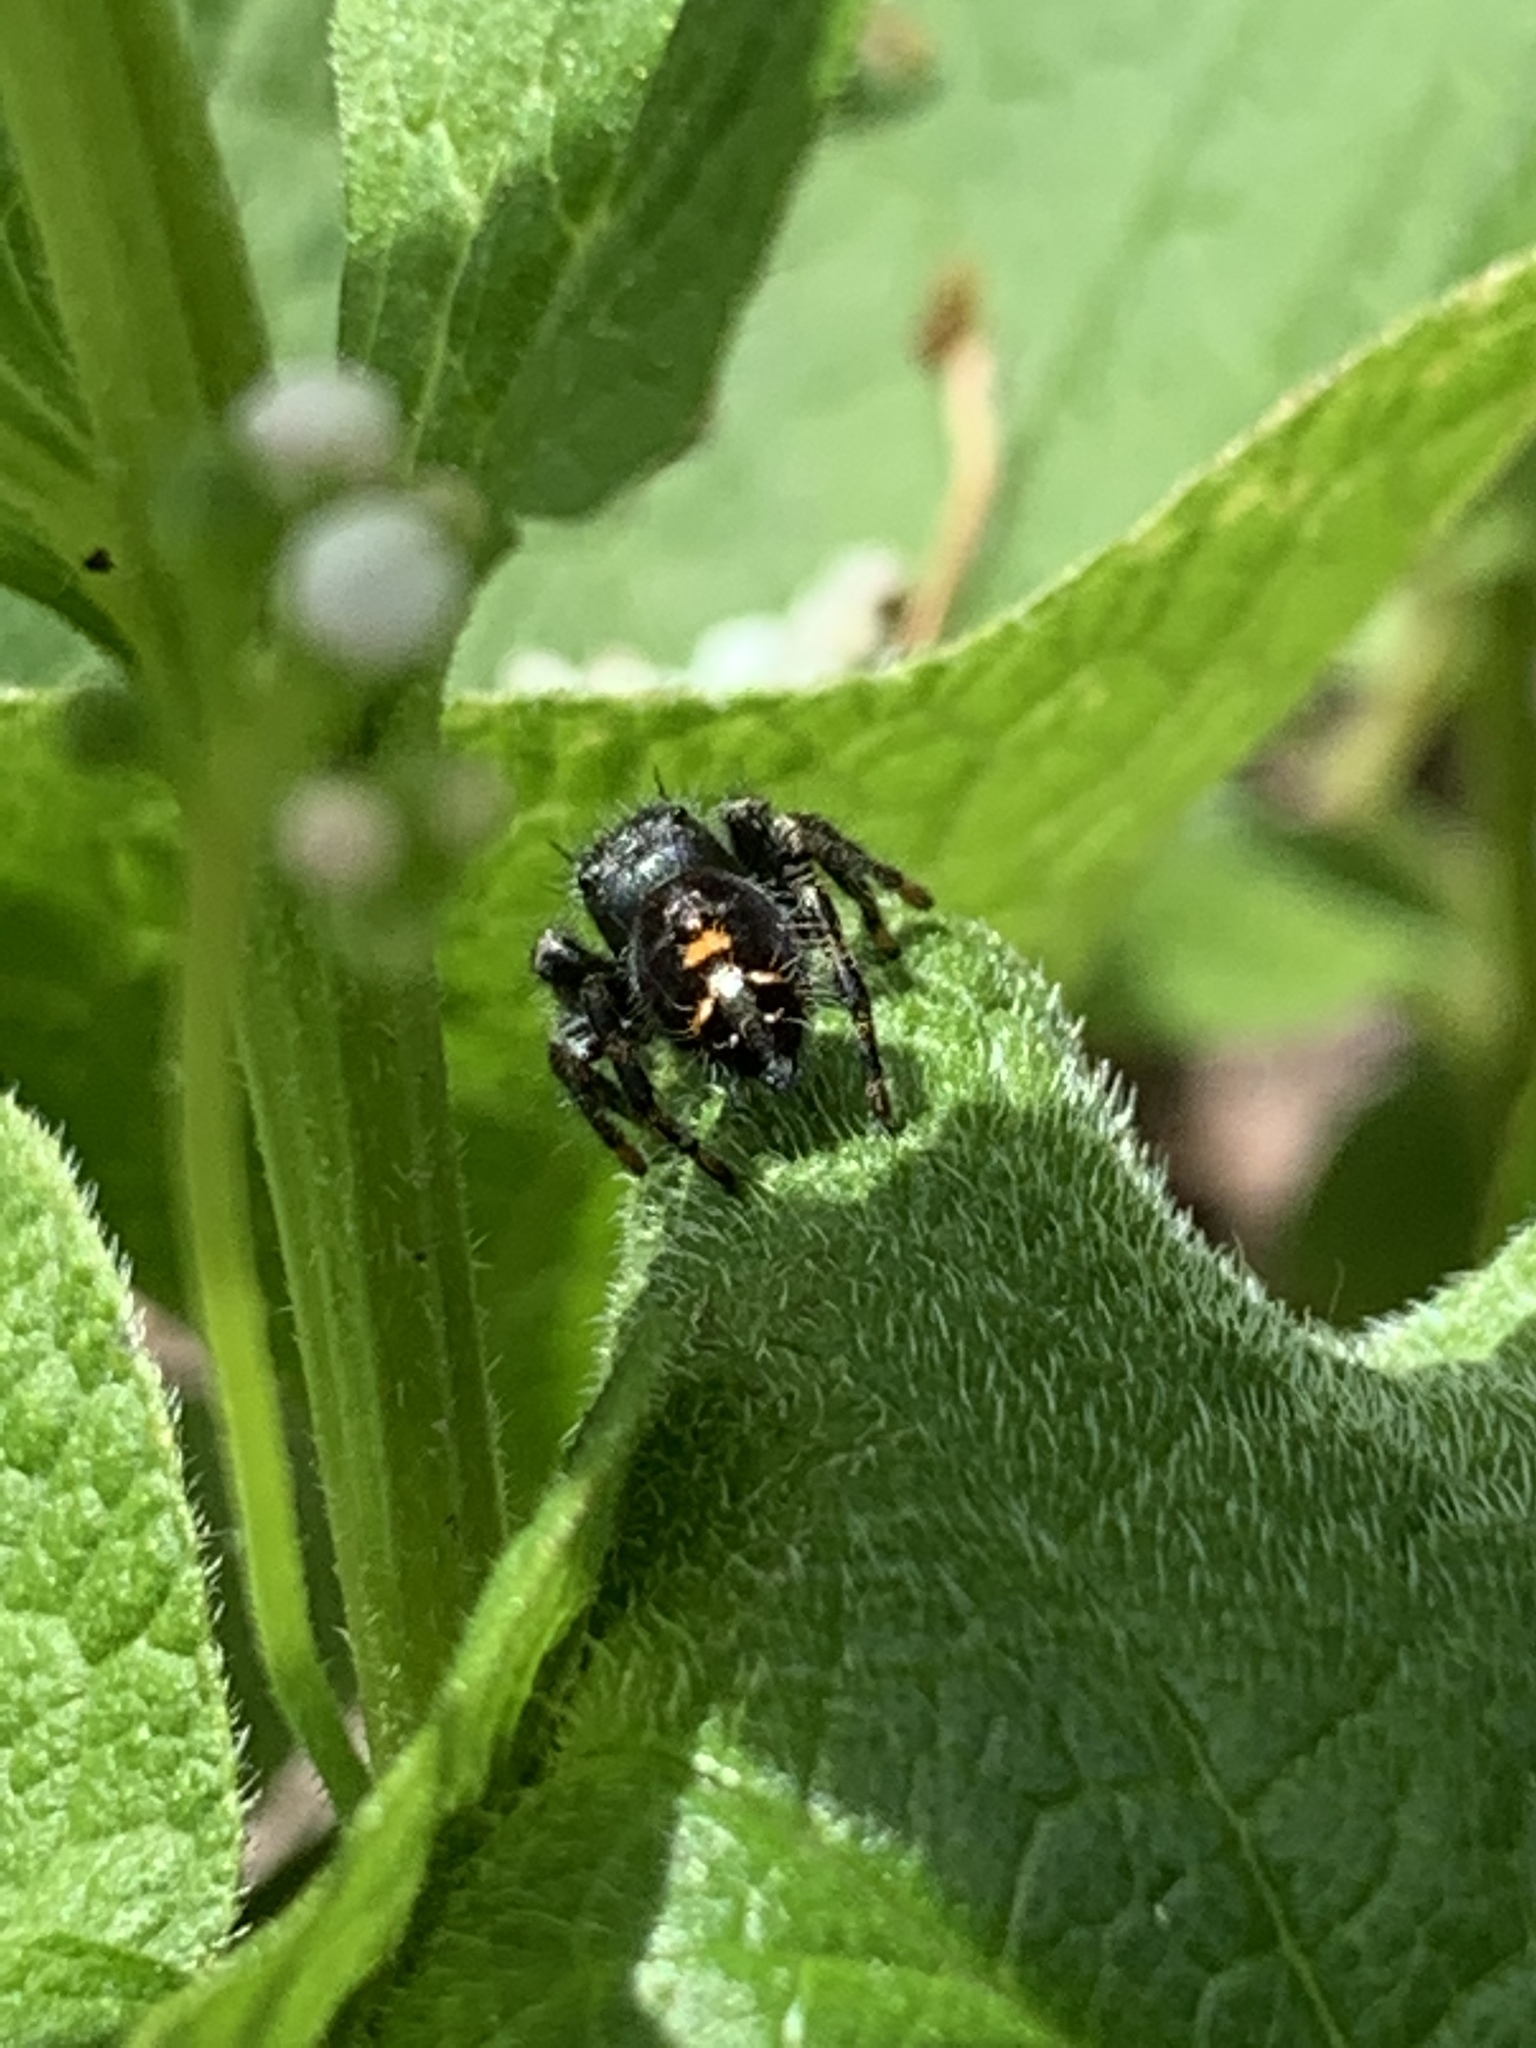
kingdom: Animalia
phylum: Arthropoda
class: Arachnida
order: Araneae
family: Salticidae
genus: Phidippus
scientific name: Phidippus audax
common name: Bold jumper
